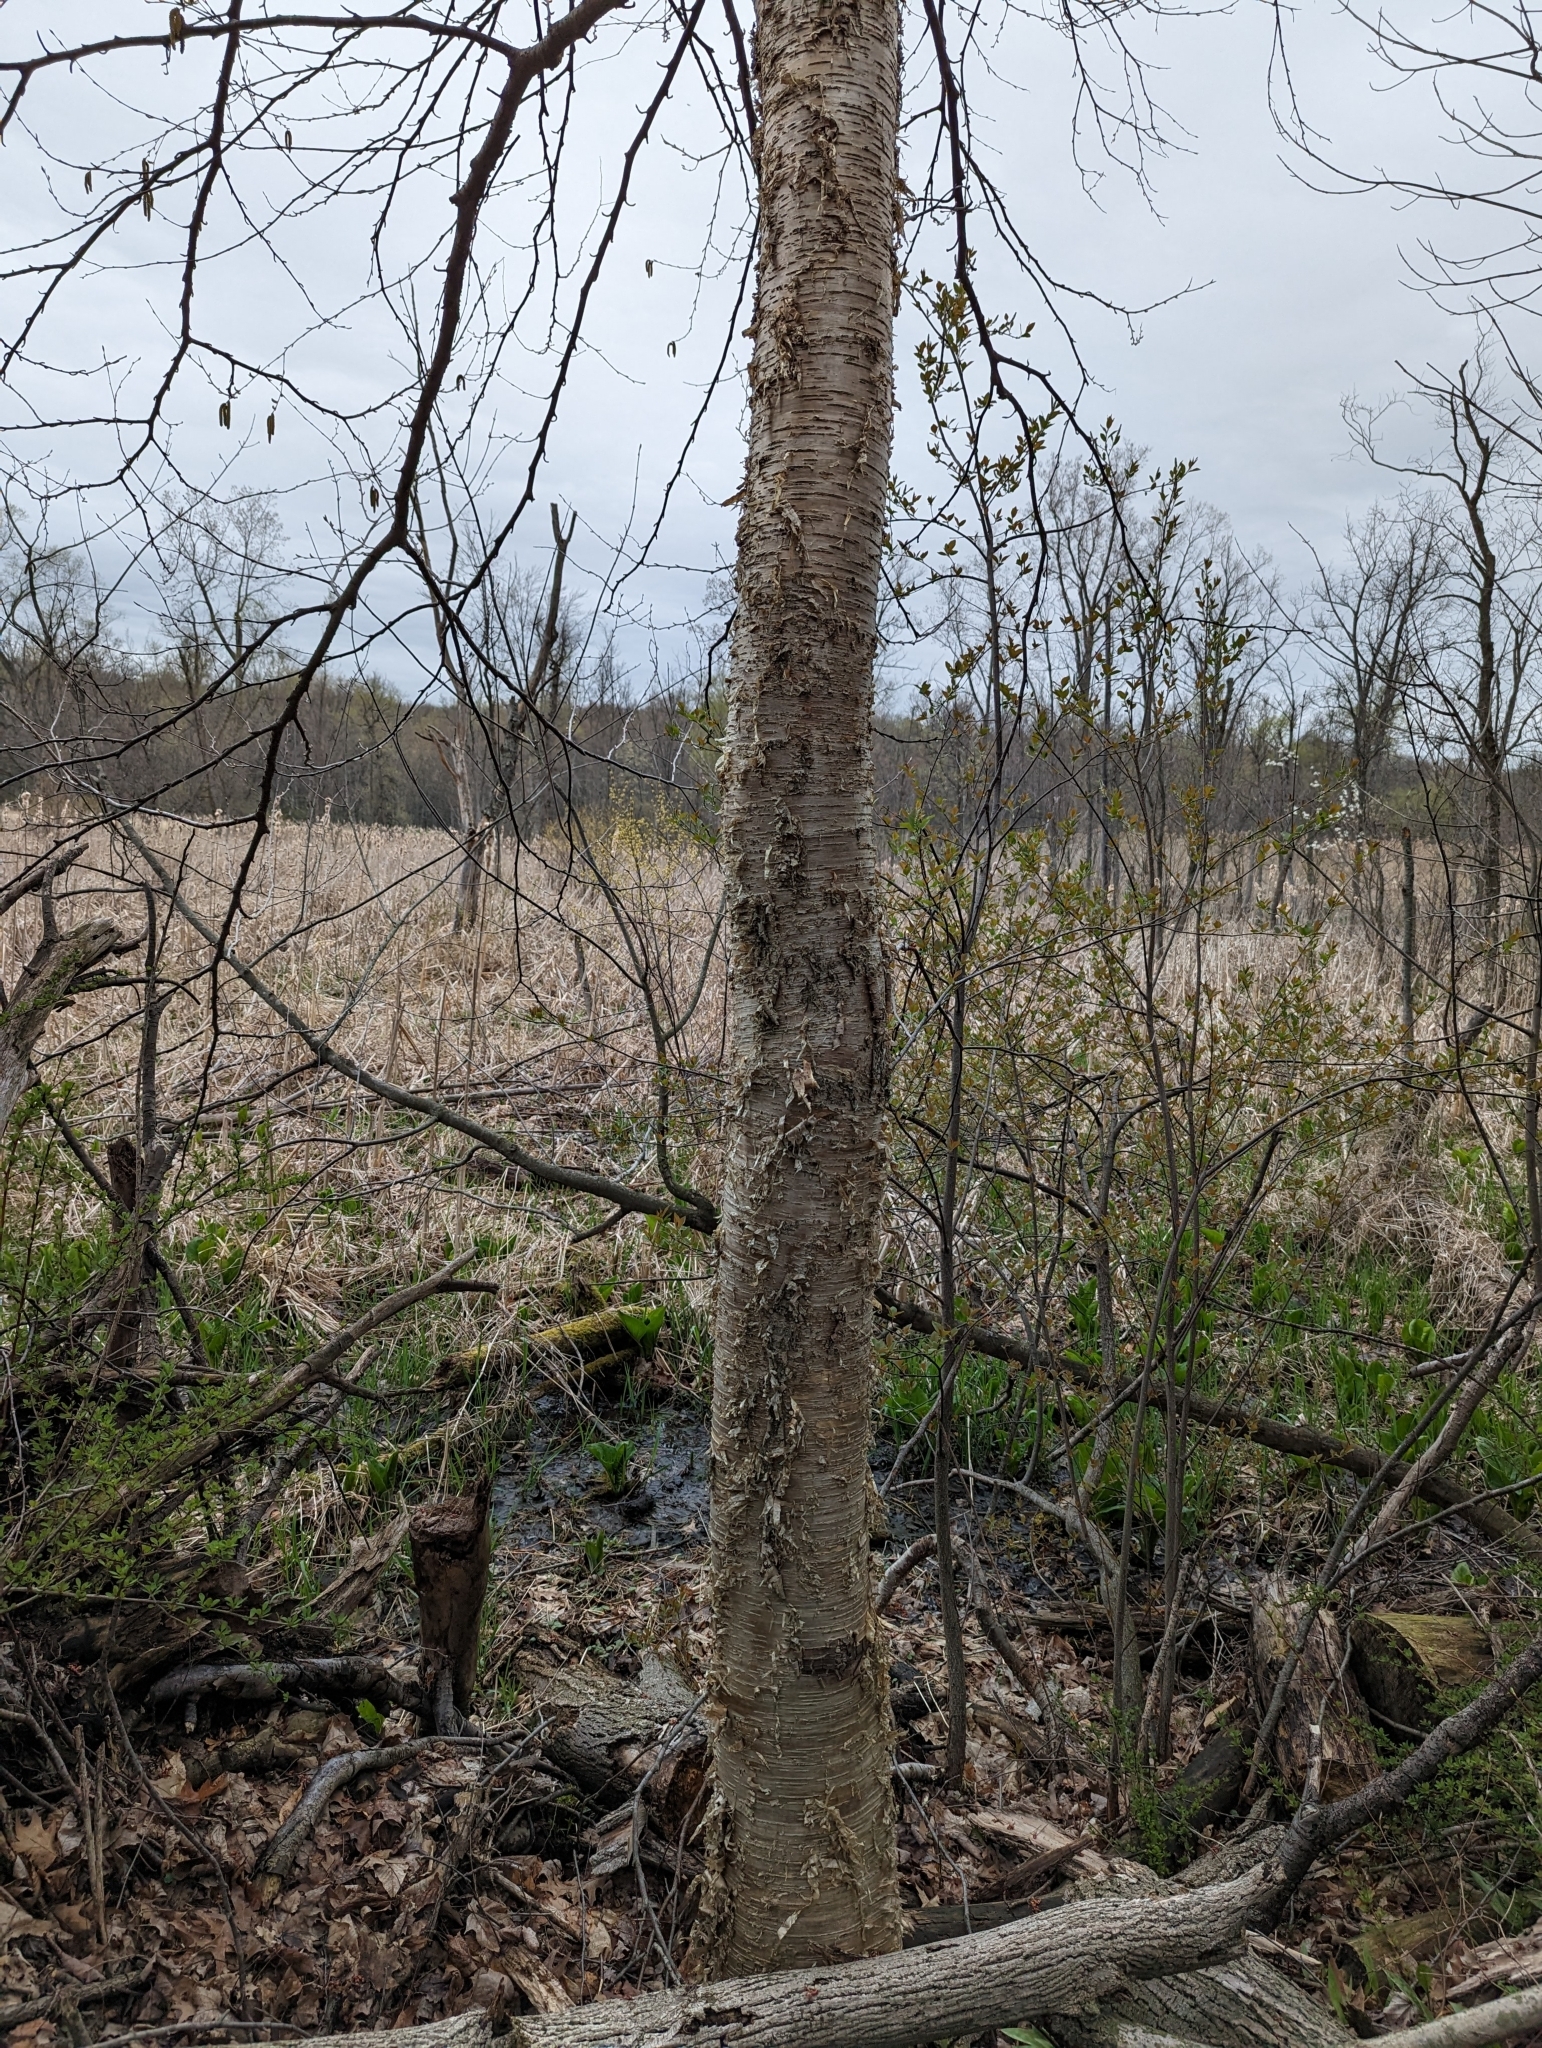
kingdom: Plantae
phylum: Tracheophyta
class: Magnoliopsida
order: Fagales
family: Betulaceae
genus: Betula
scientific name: Betula alleghaniensis
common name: Yellow birch
